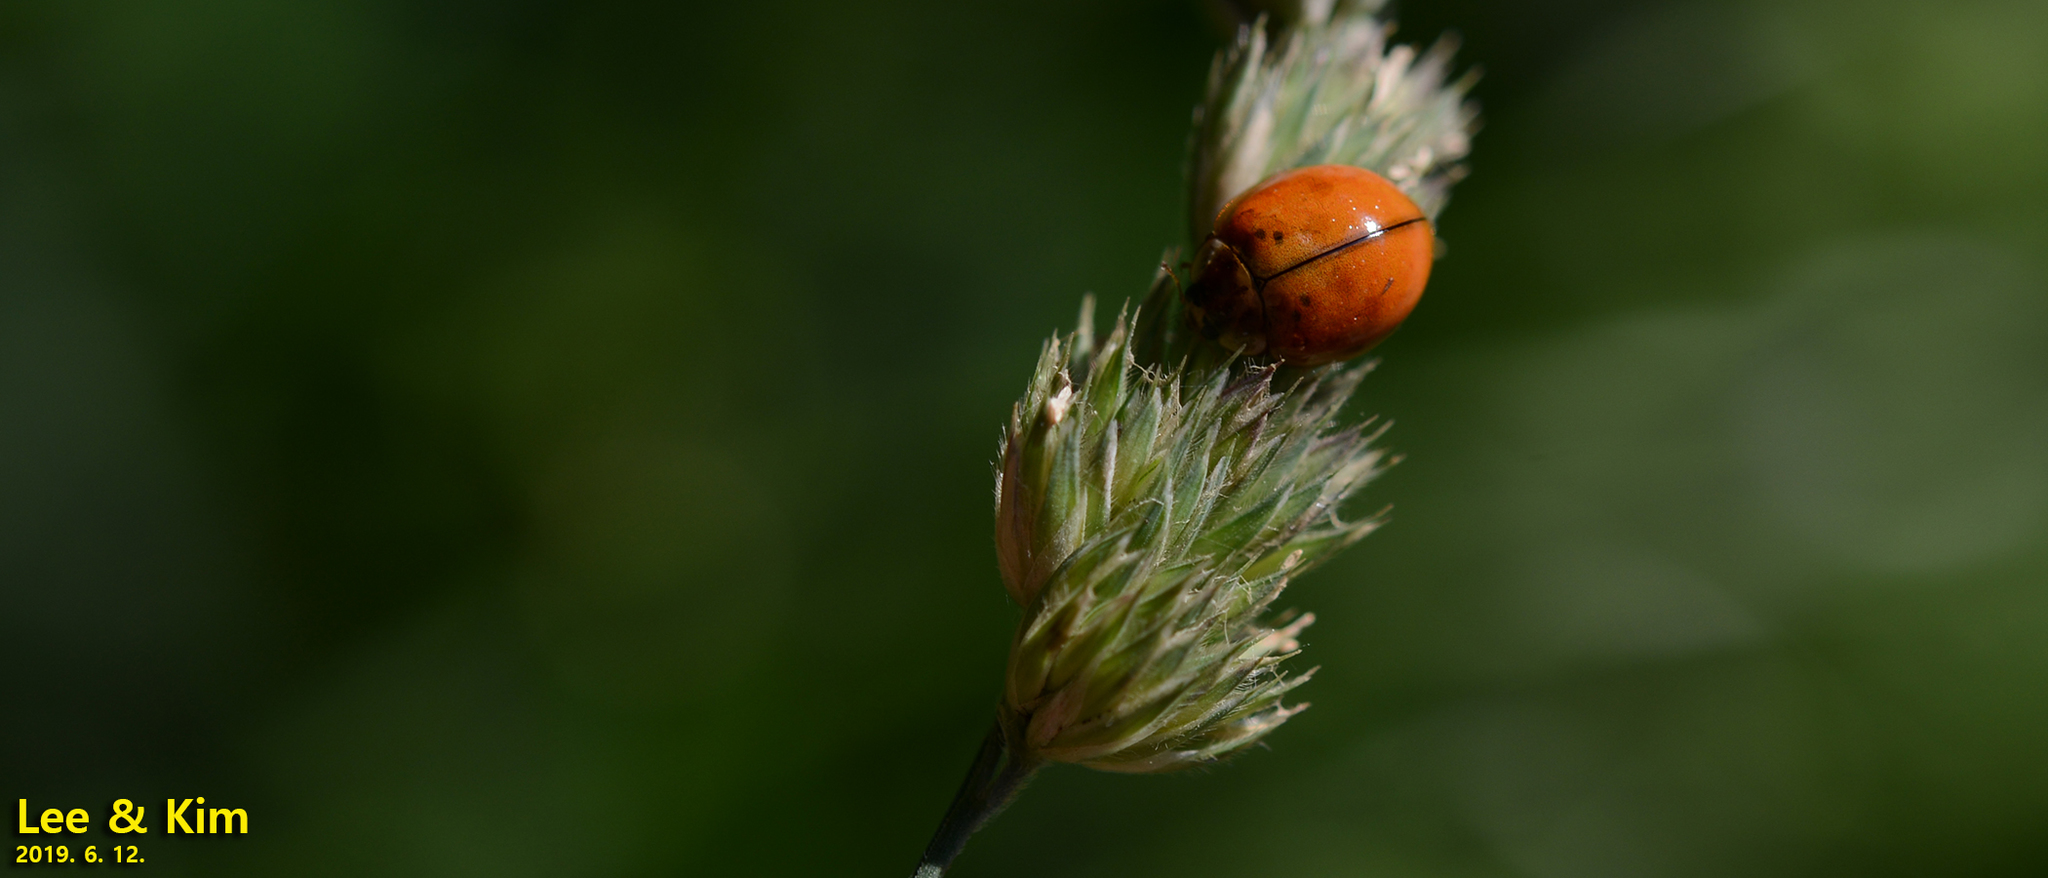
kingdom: Animalia
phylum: Arthropoda
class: Insecta
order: Coleoptera
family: Coccinellidae
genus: Harmonia
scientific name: Harmonia axyridis
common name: Harlequin ladybird
